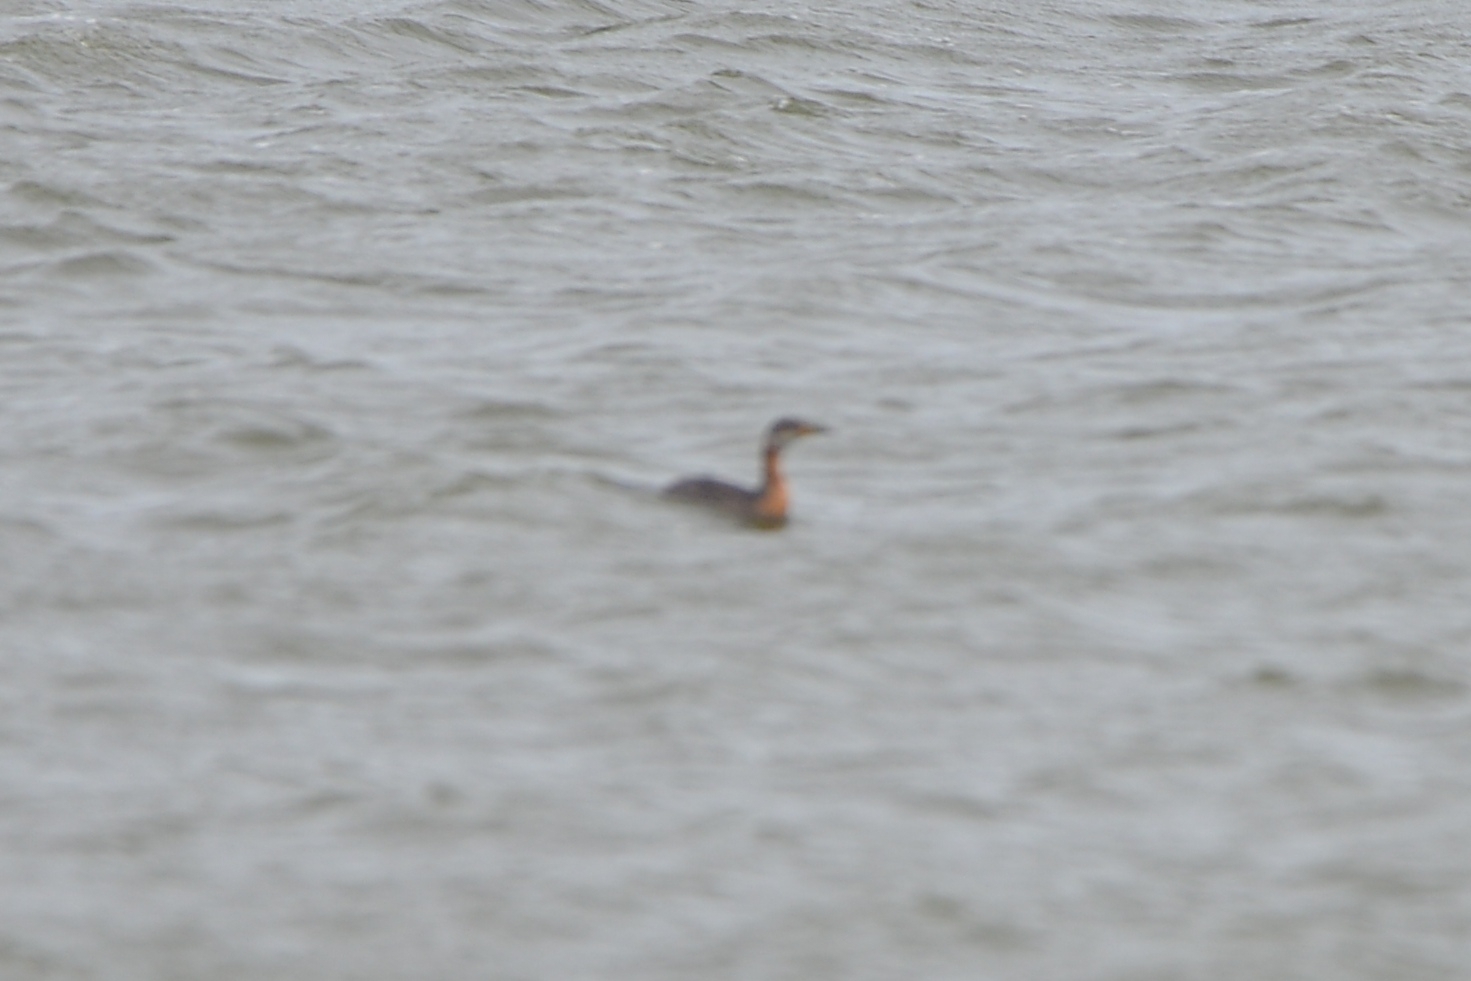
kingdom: Animalia
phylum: Chordata
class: Aves
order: Podicipediformes
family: Podicipedidae
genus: Podiceps
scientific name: Podiceps grisegena
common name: Red-necked grebe
